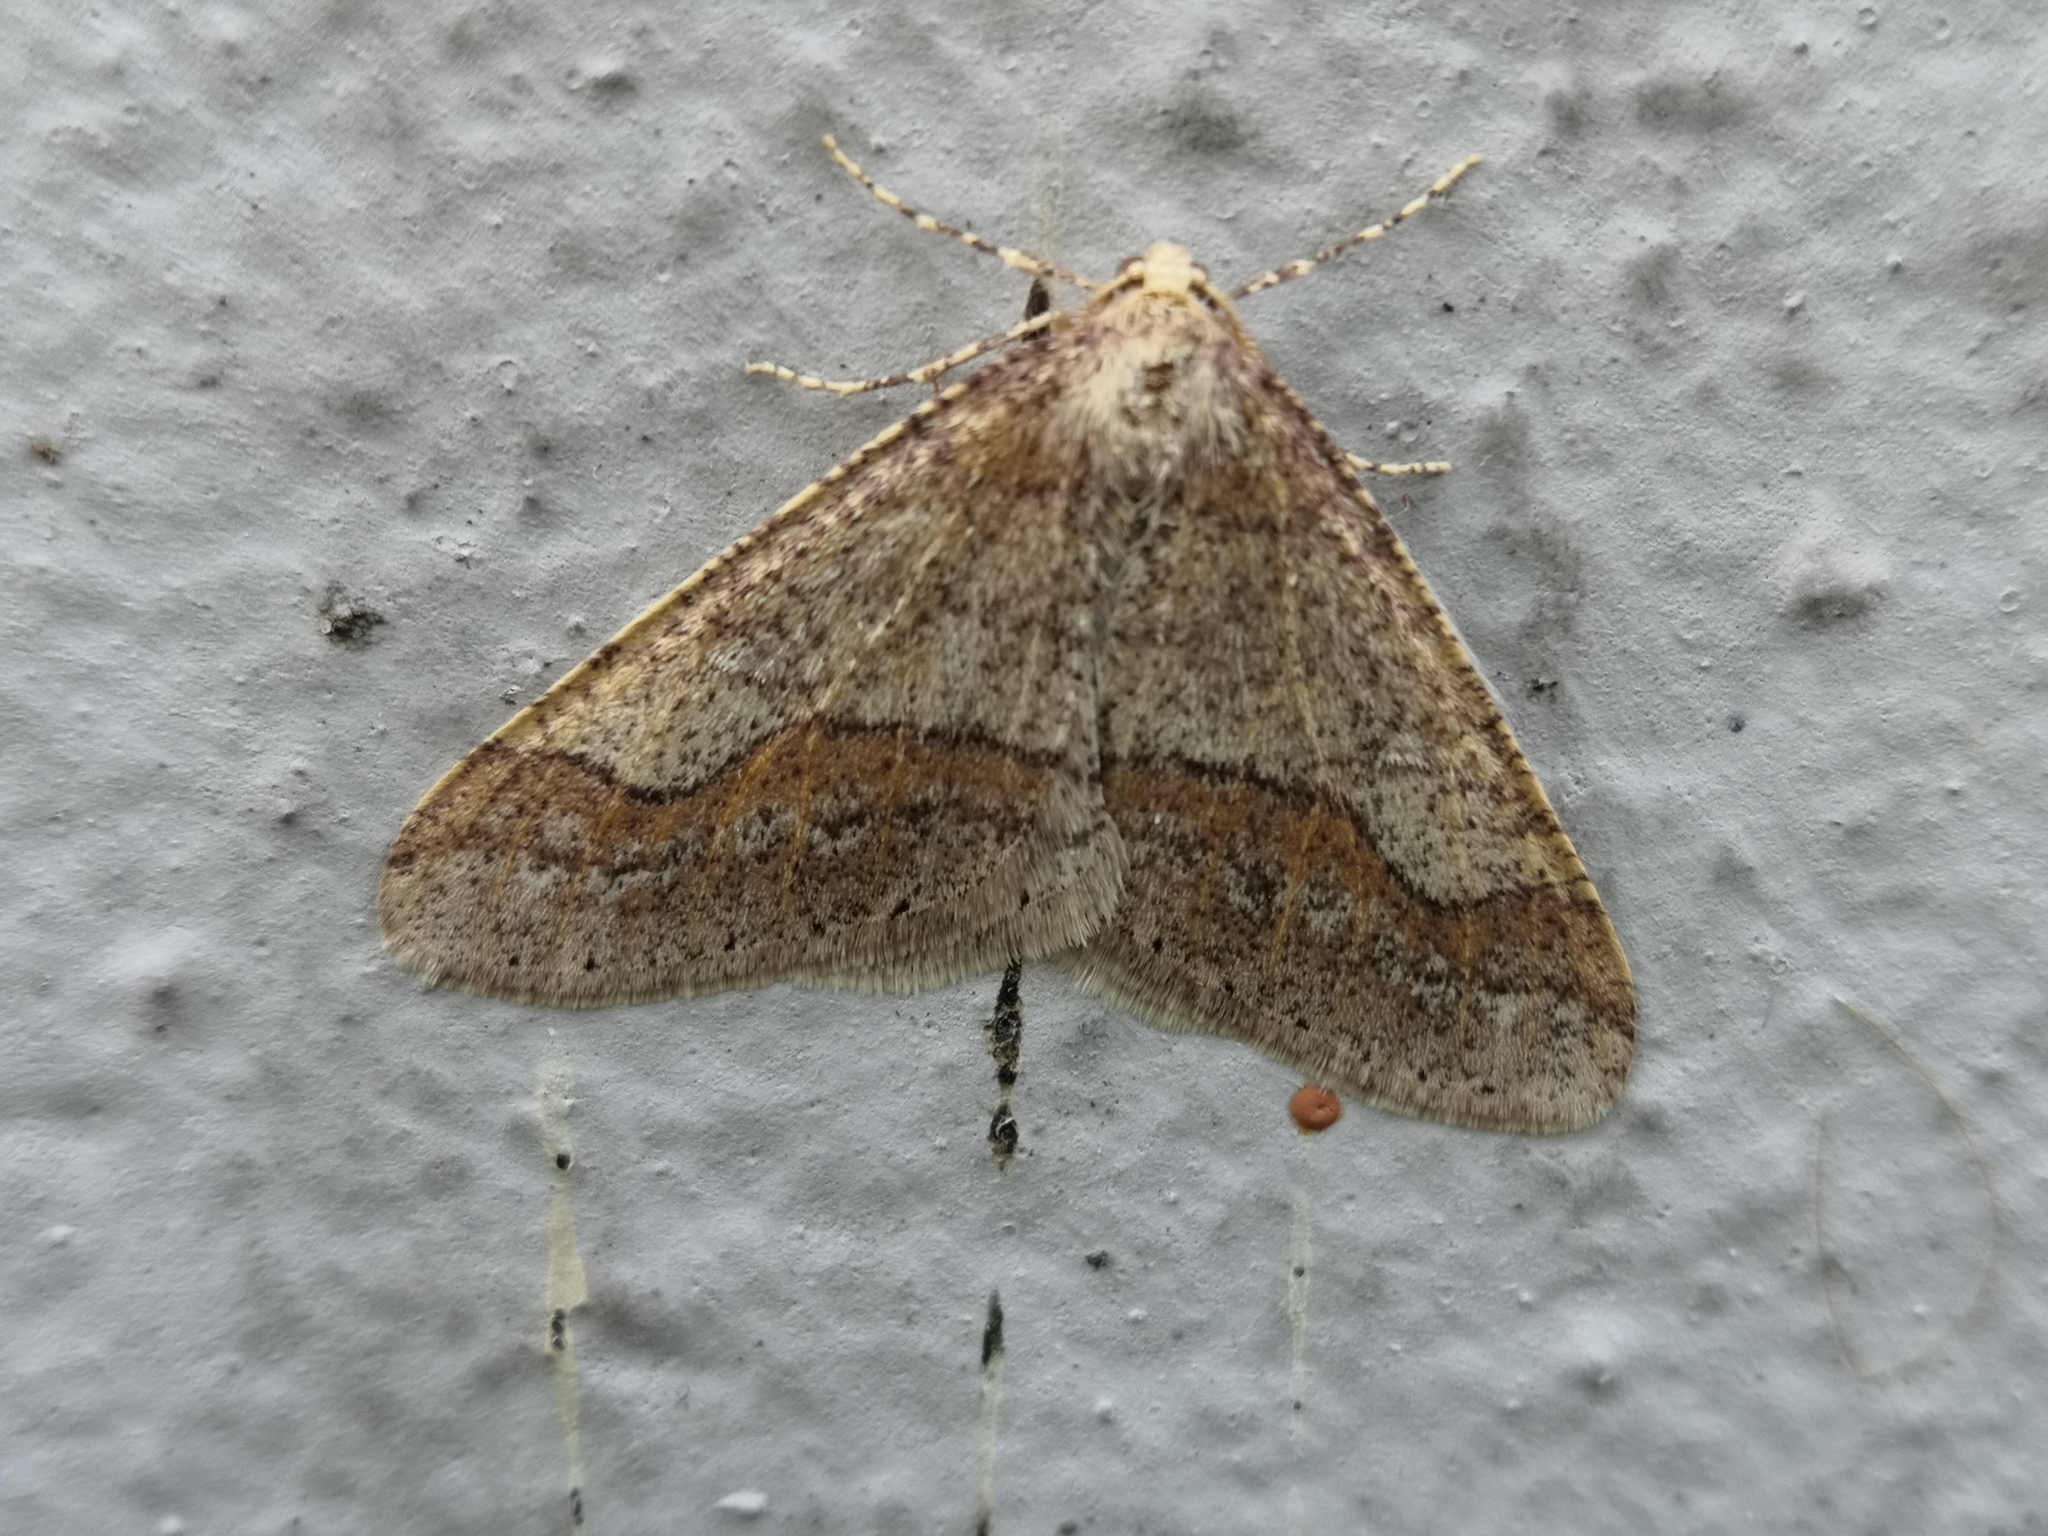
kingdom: Animalia
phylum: Arthropoda
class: Insecta
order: Lepidoptera
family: Geometridae
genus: Agriopis
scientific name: Agriopis marginaria
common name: Dotted border
